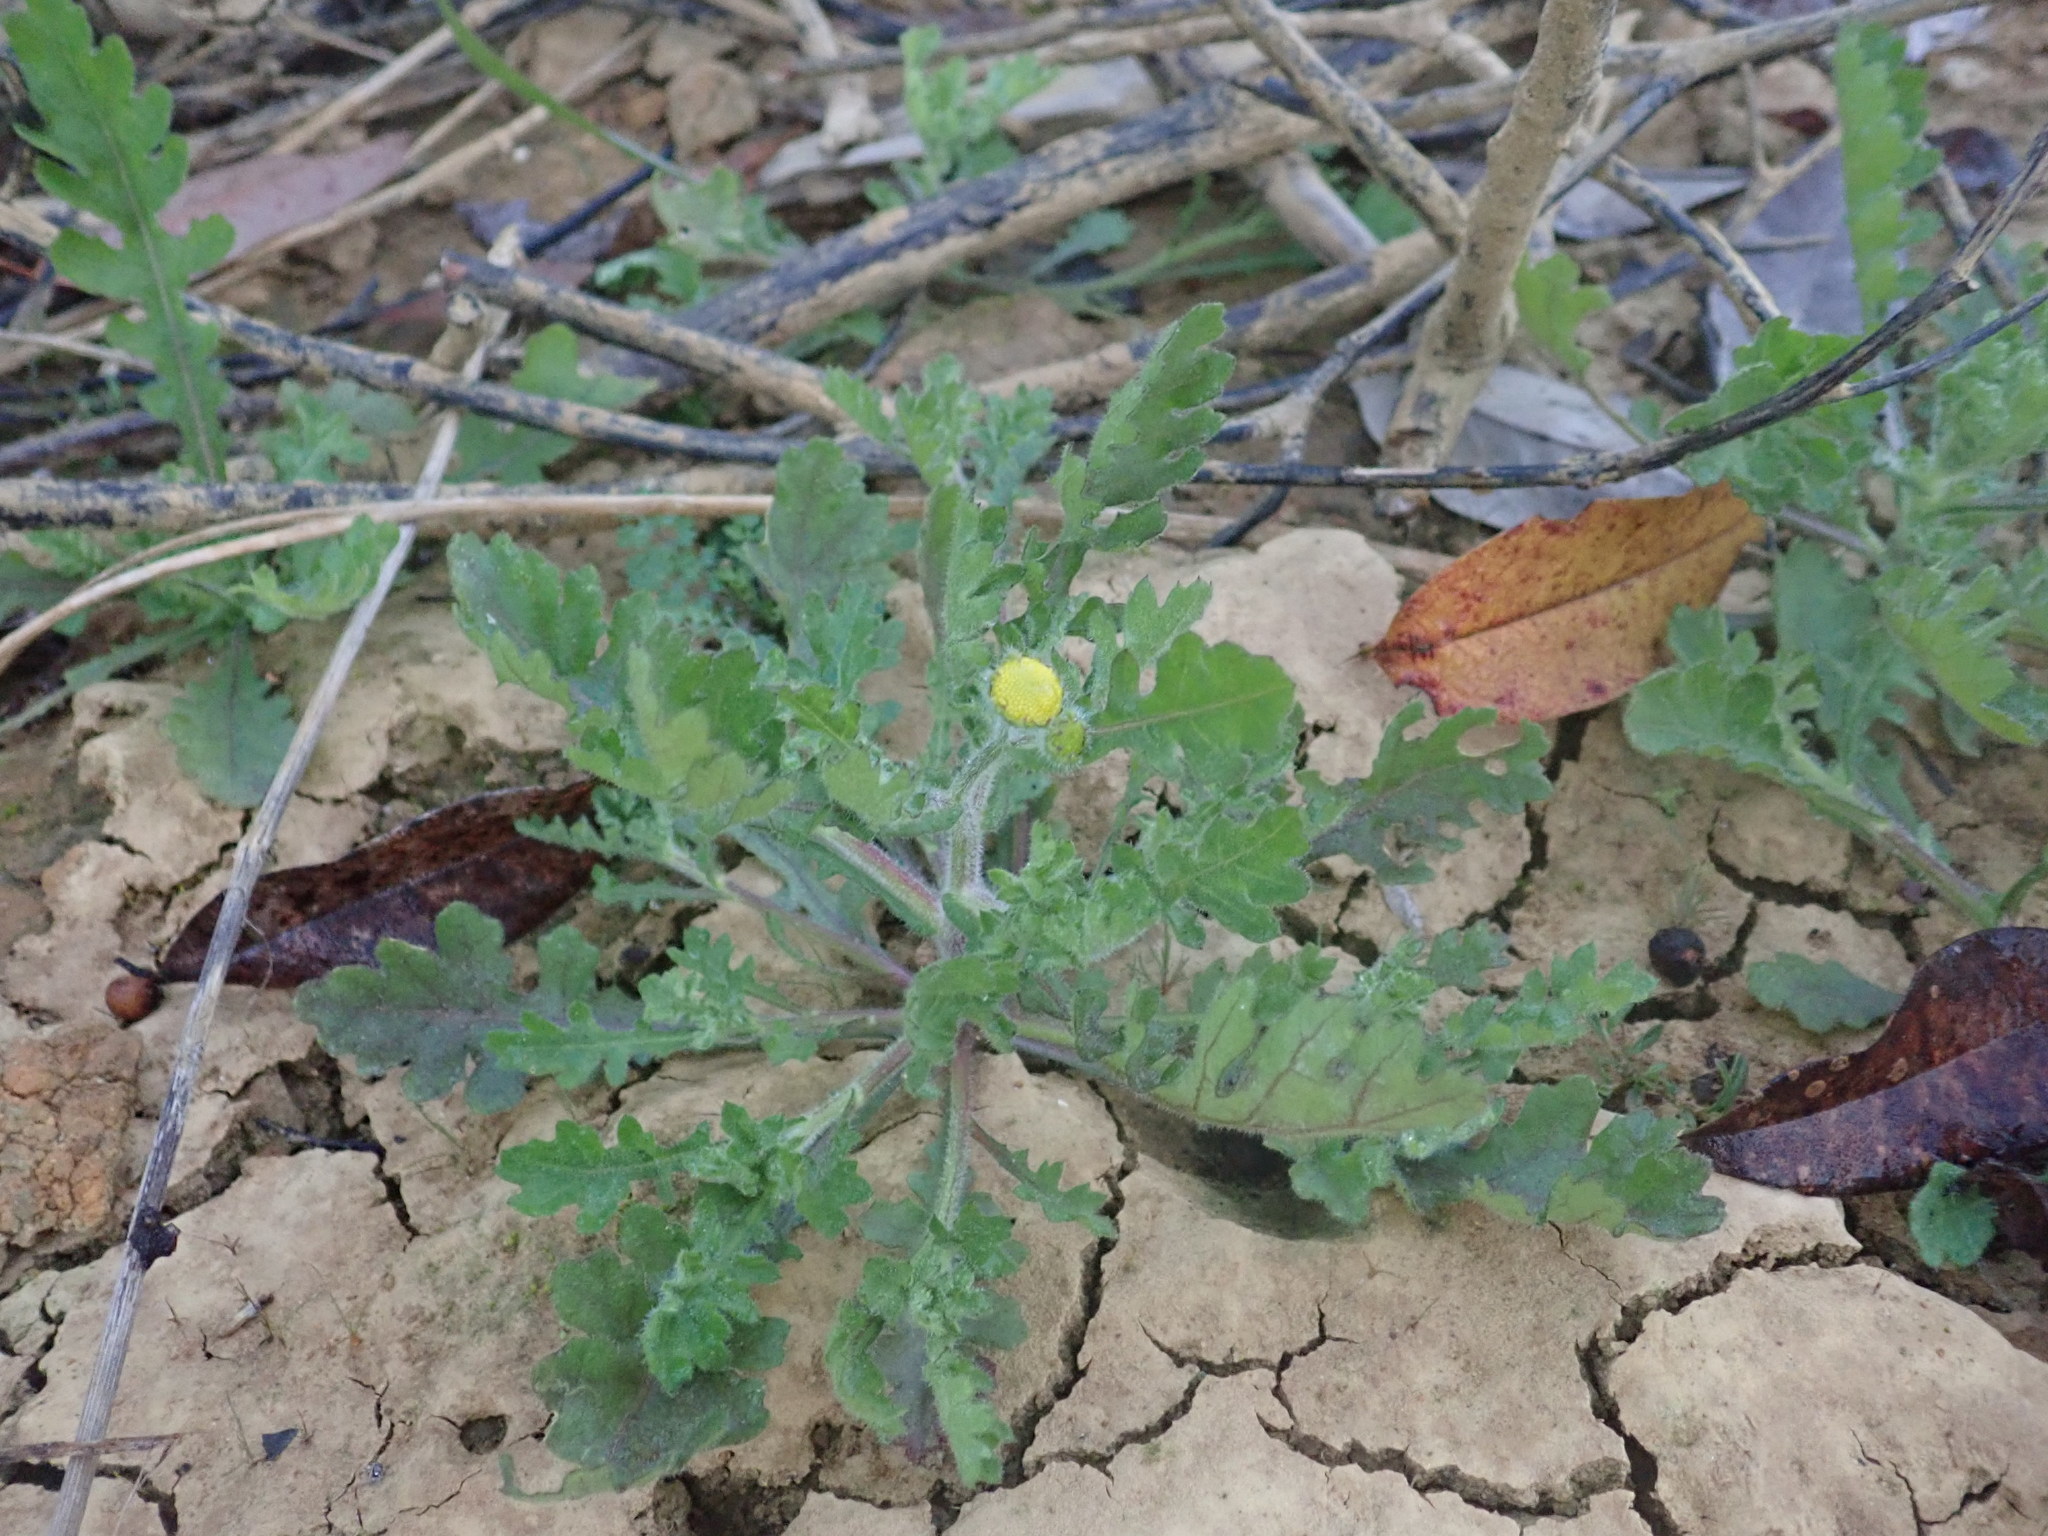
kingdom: Plantae
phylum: Tracheophyta
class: Magnoliopsida
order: Asterales
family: Asteraceae
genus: Grangea
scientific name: Grangea maderaspatana
